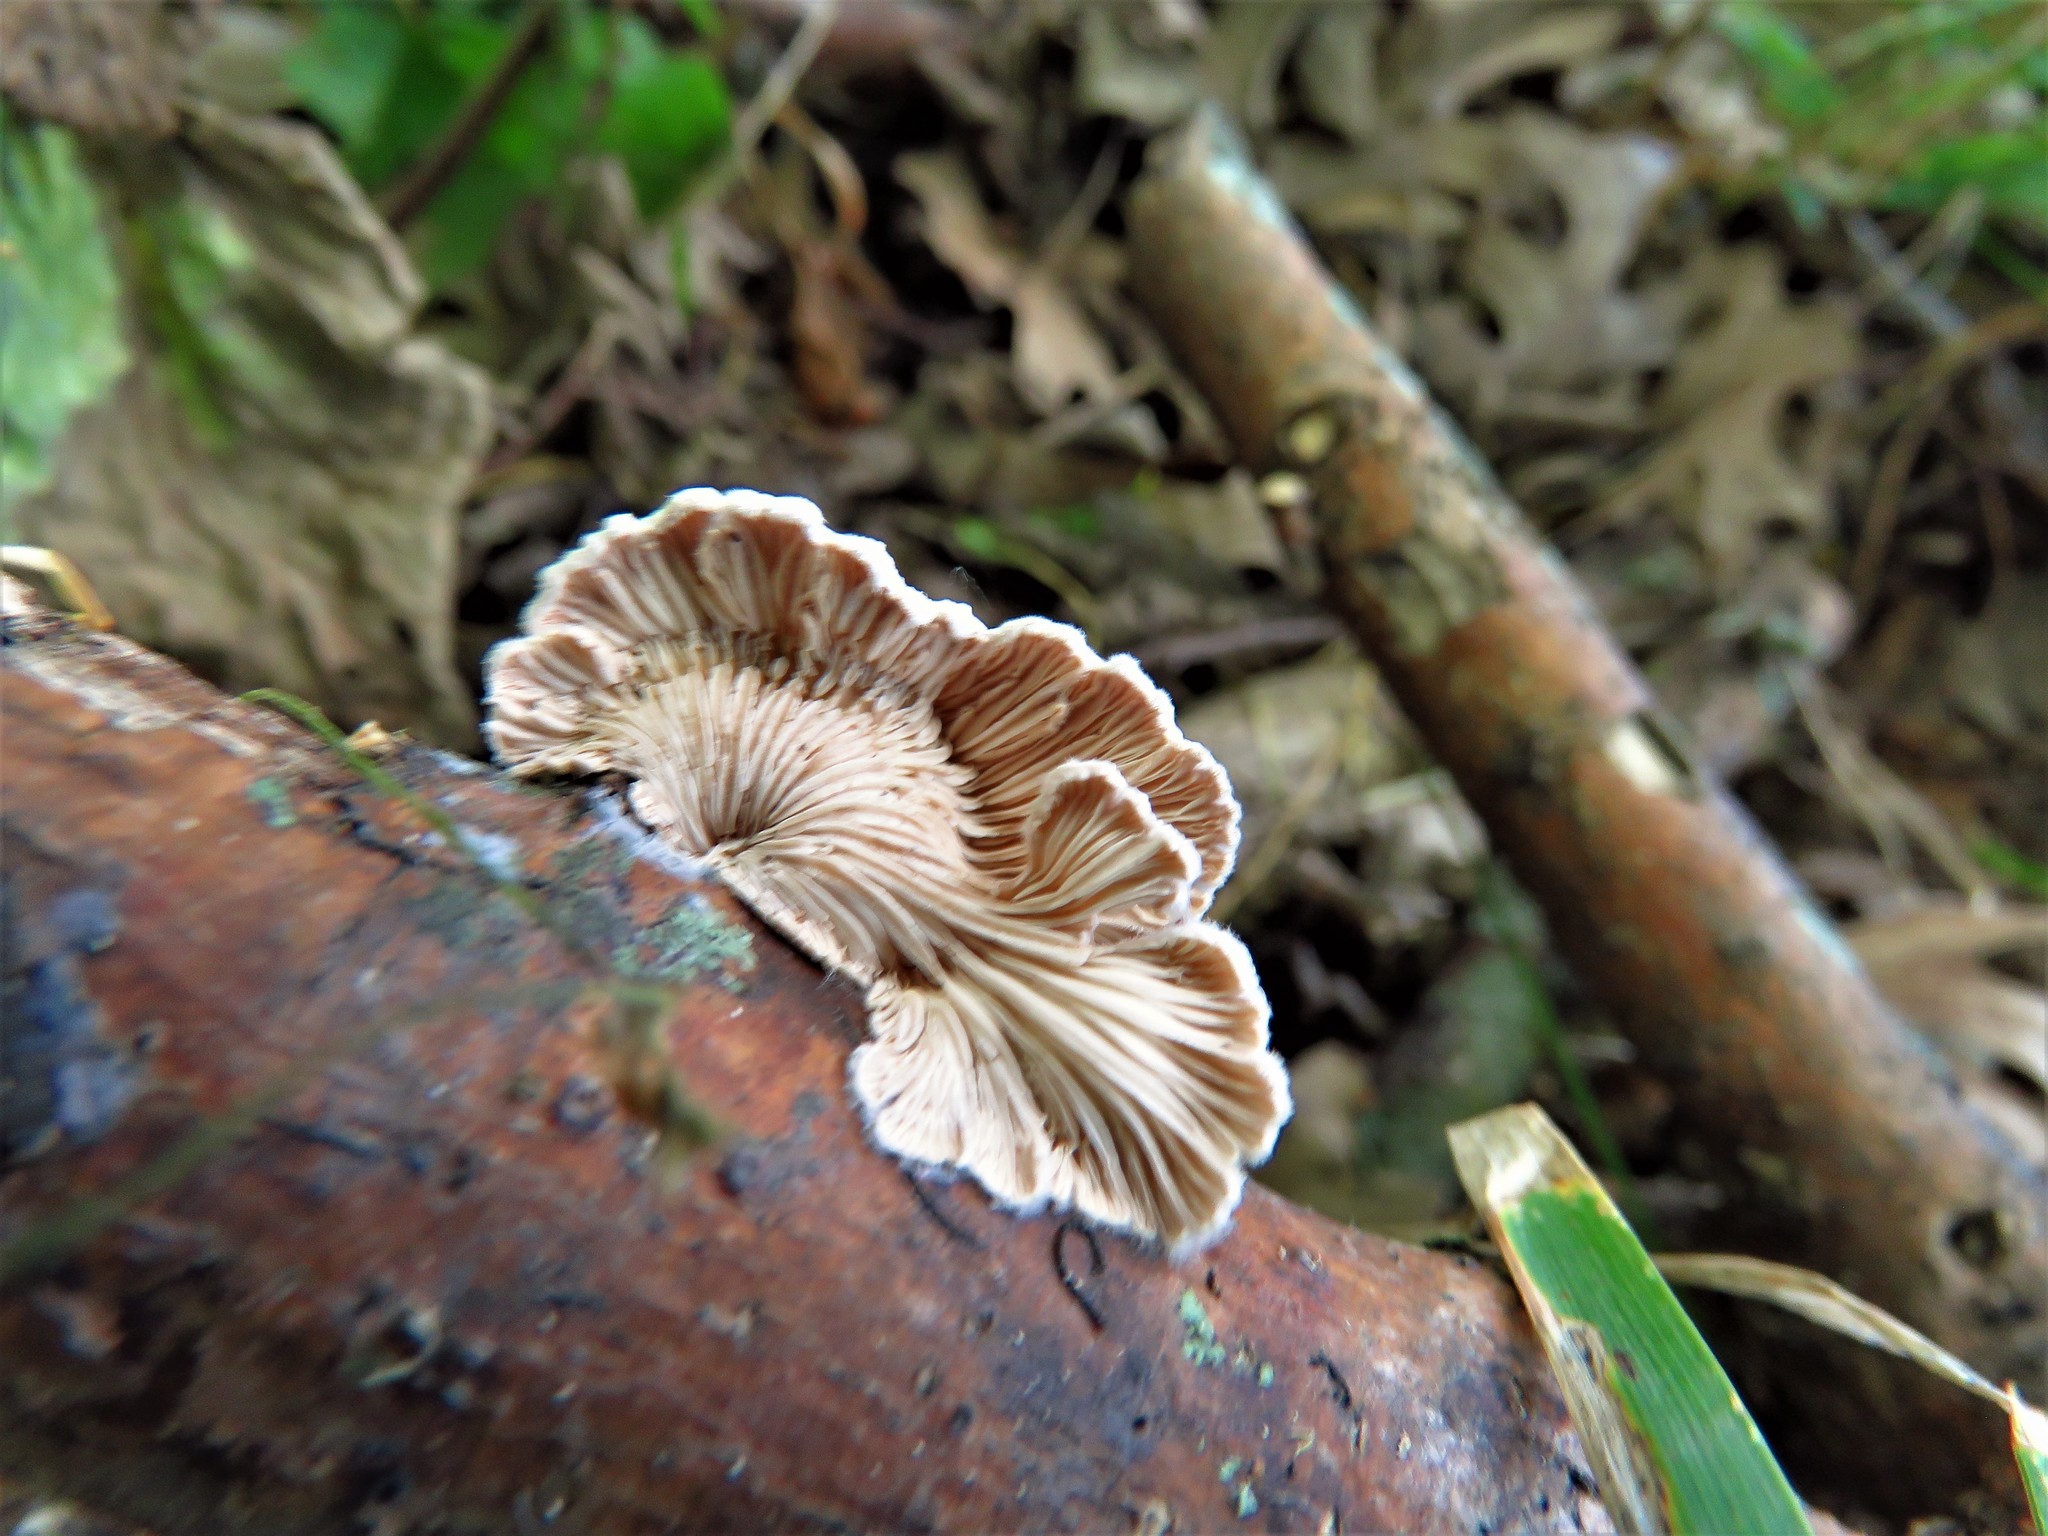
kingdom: Fungi
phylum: Basidiomycota
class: Agaricomycetes
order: Agaricales
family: Schizophyllaceae
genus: Schizophyllum
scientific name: Schizophyllum commune
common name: Common porecrust
